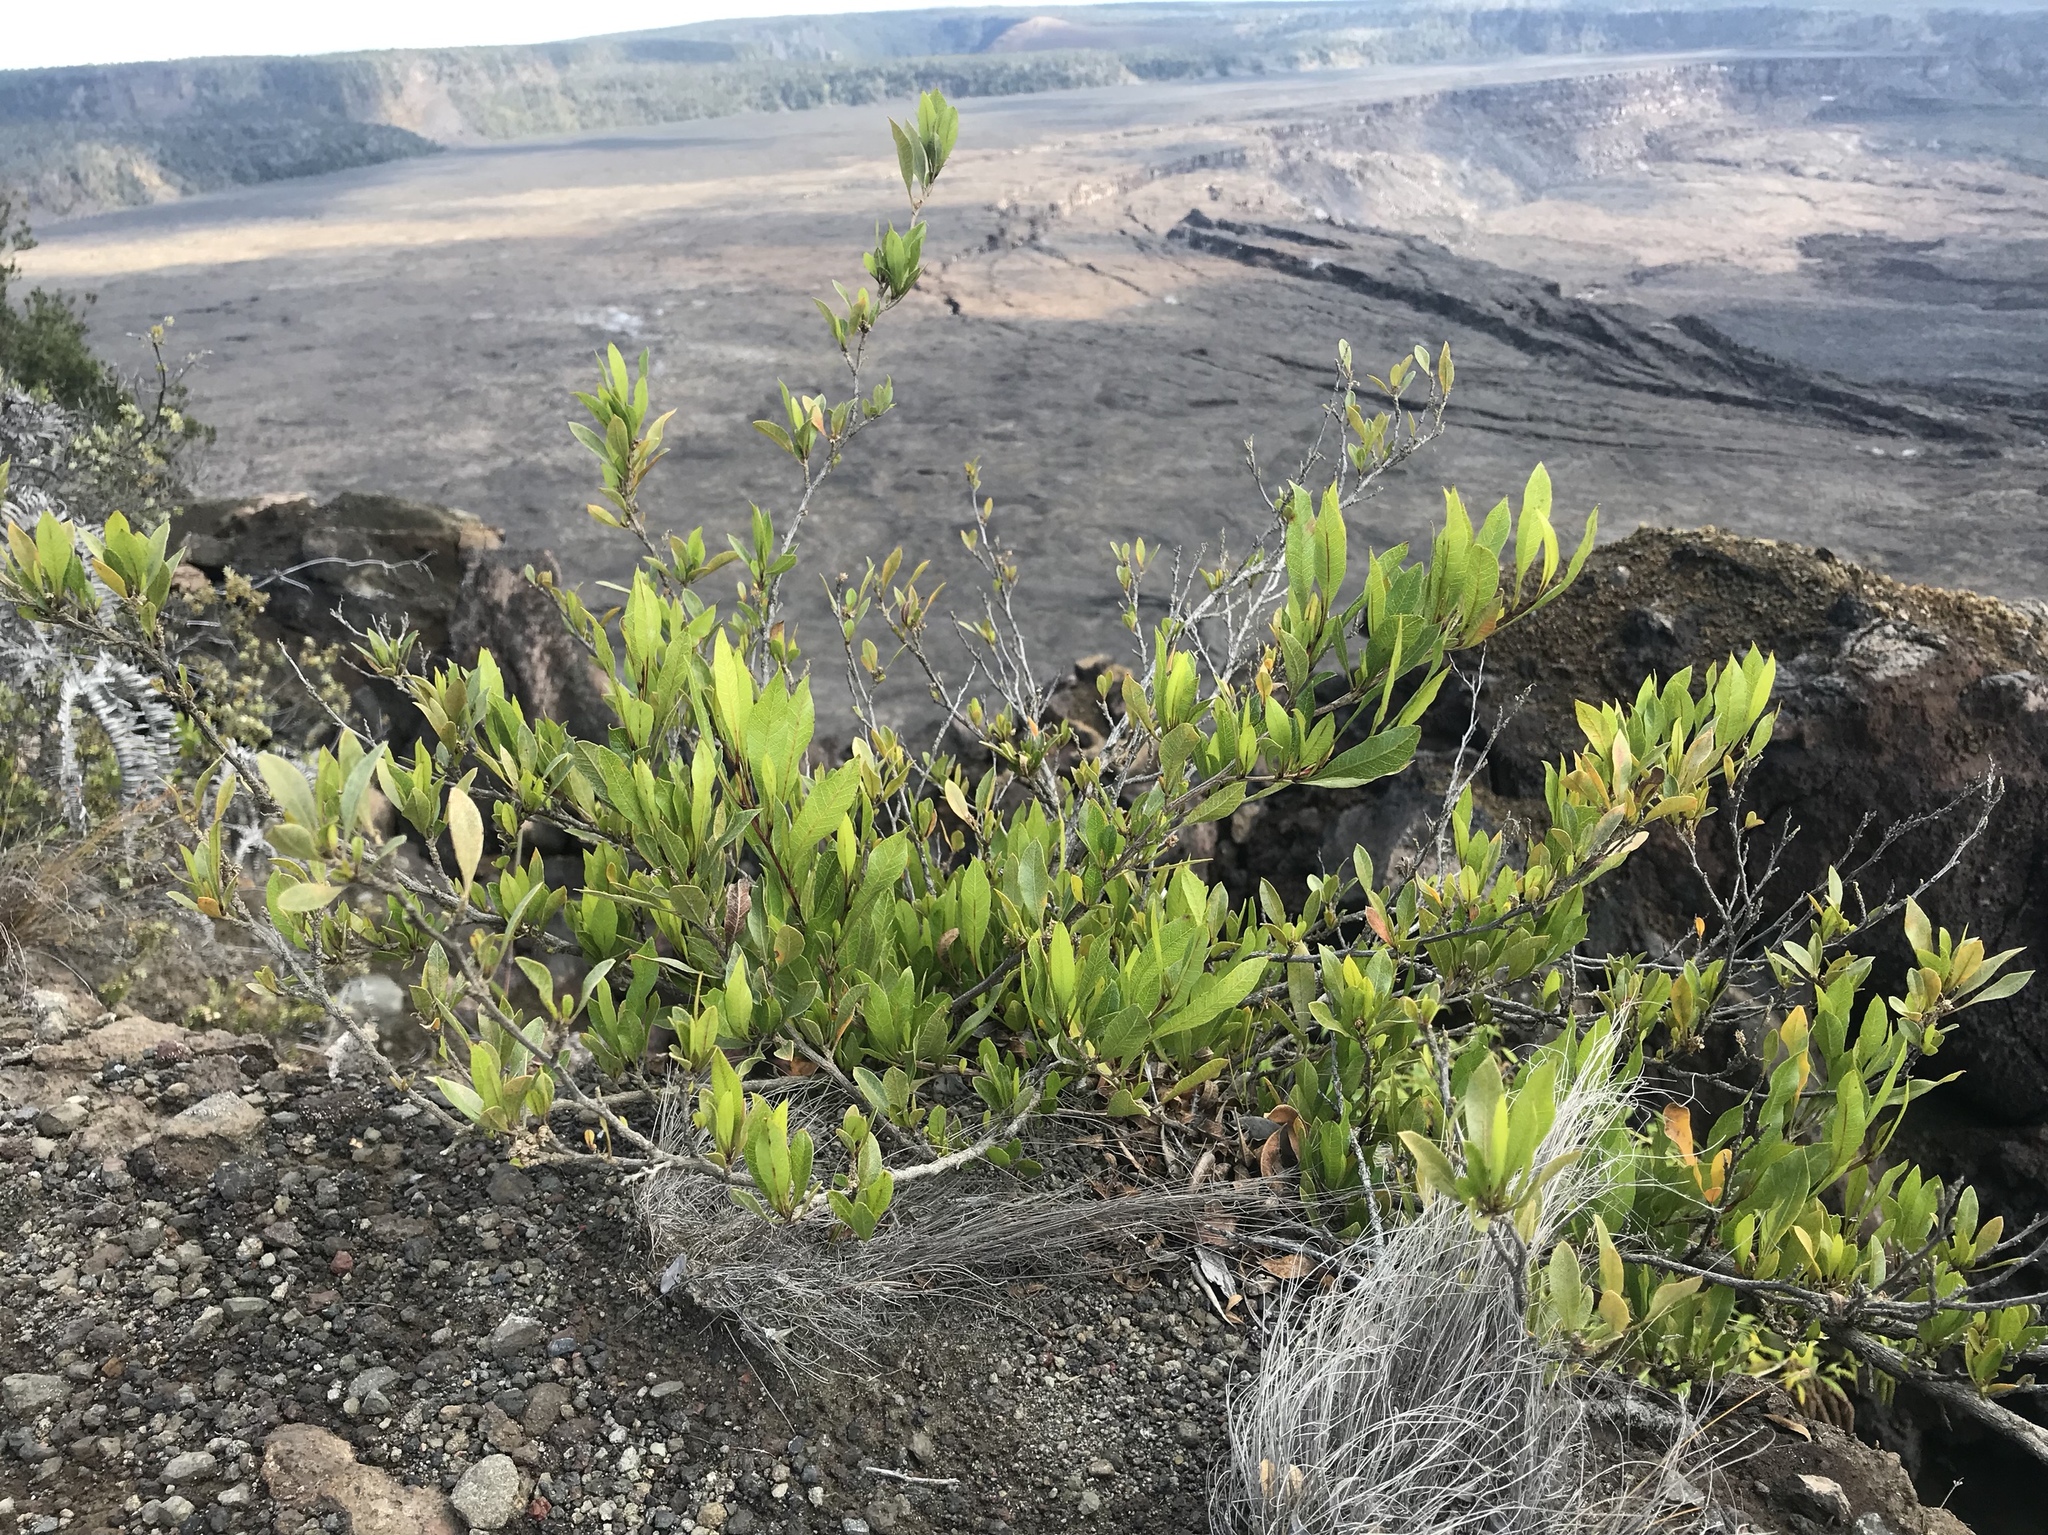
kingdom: Plantae
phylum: Tracheophyta
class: Magnoliopsida
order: Sapindales
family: Sapindaceae
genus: Dodonaea
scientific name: Dodonaea viscosa
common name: Hopbush
